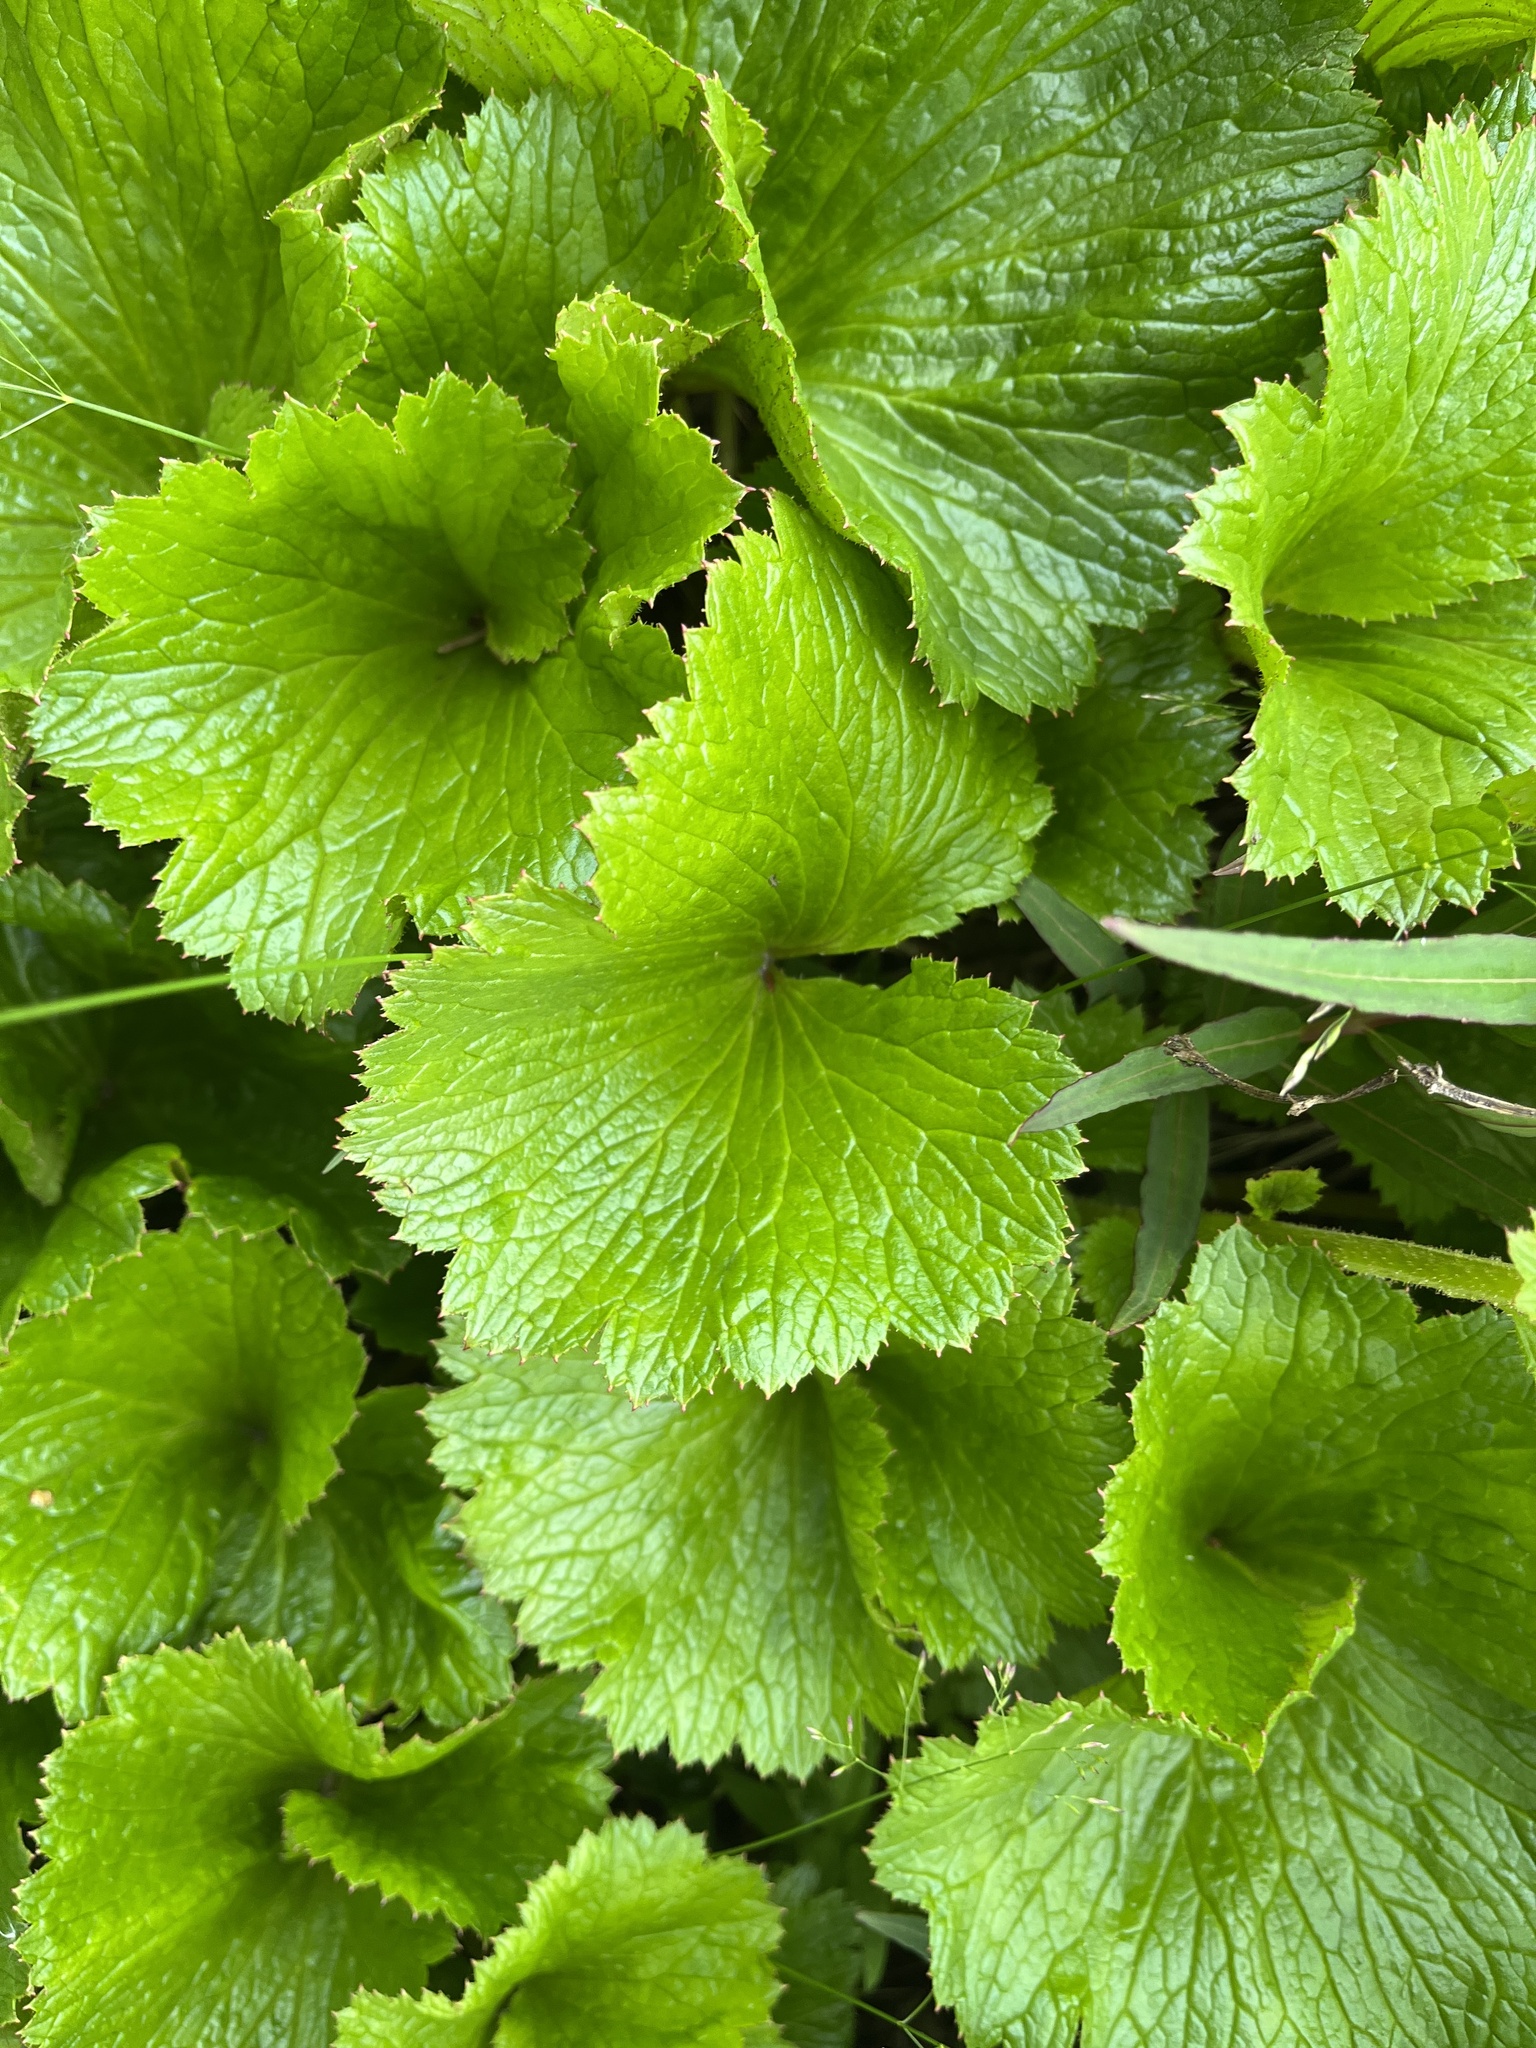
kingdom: Plantae
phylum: Tracheophyta
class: Magnoliopsida
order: Saxifragales
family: Saxifragaceae
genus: Boykinia
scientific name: Boykinia richardsonii
